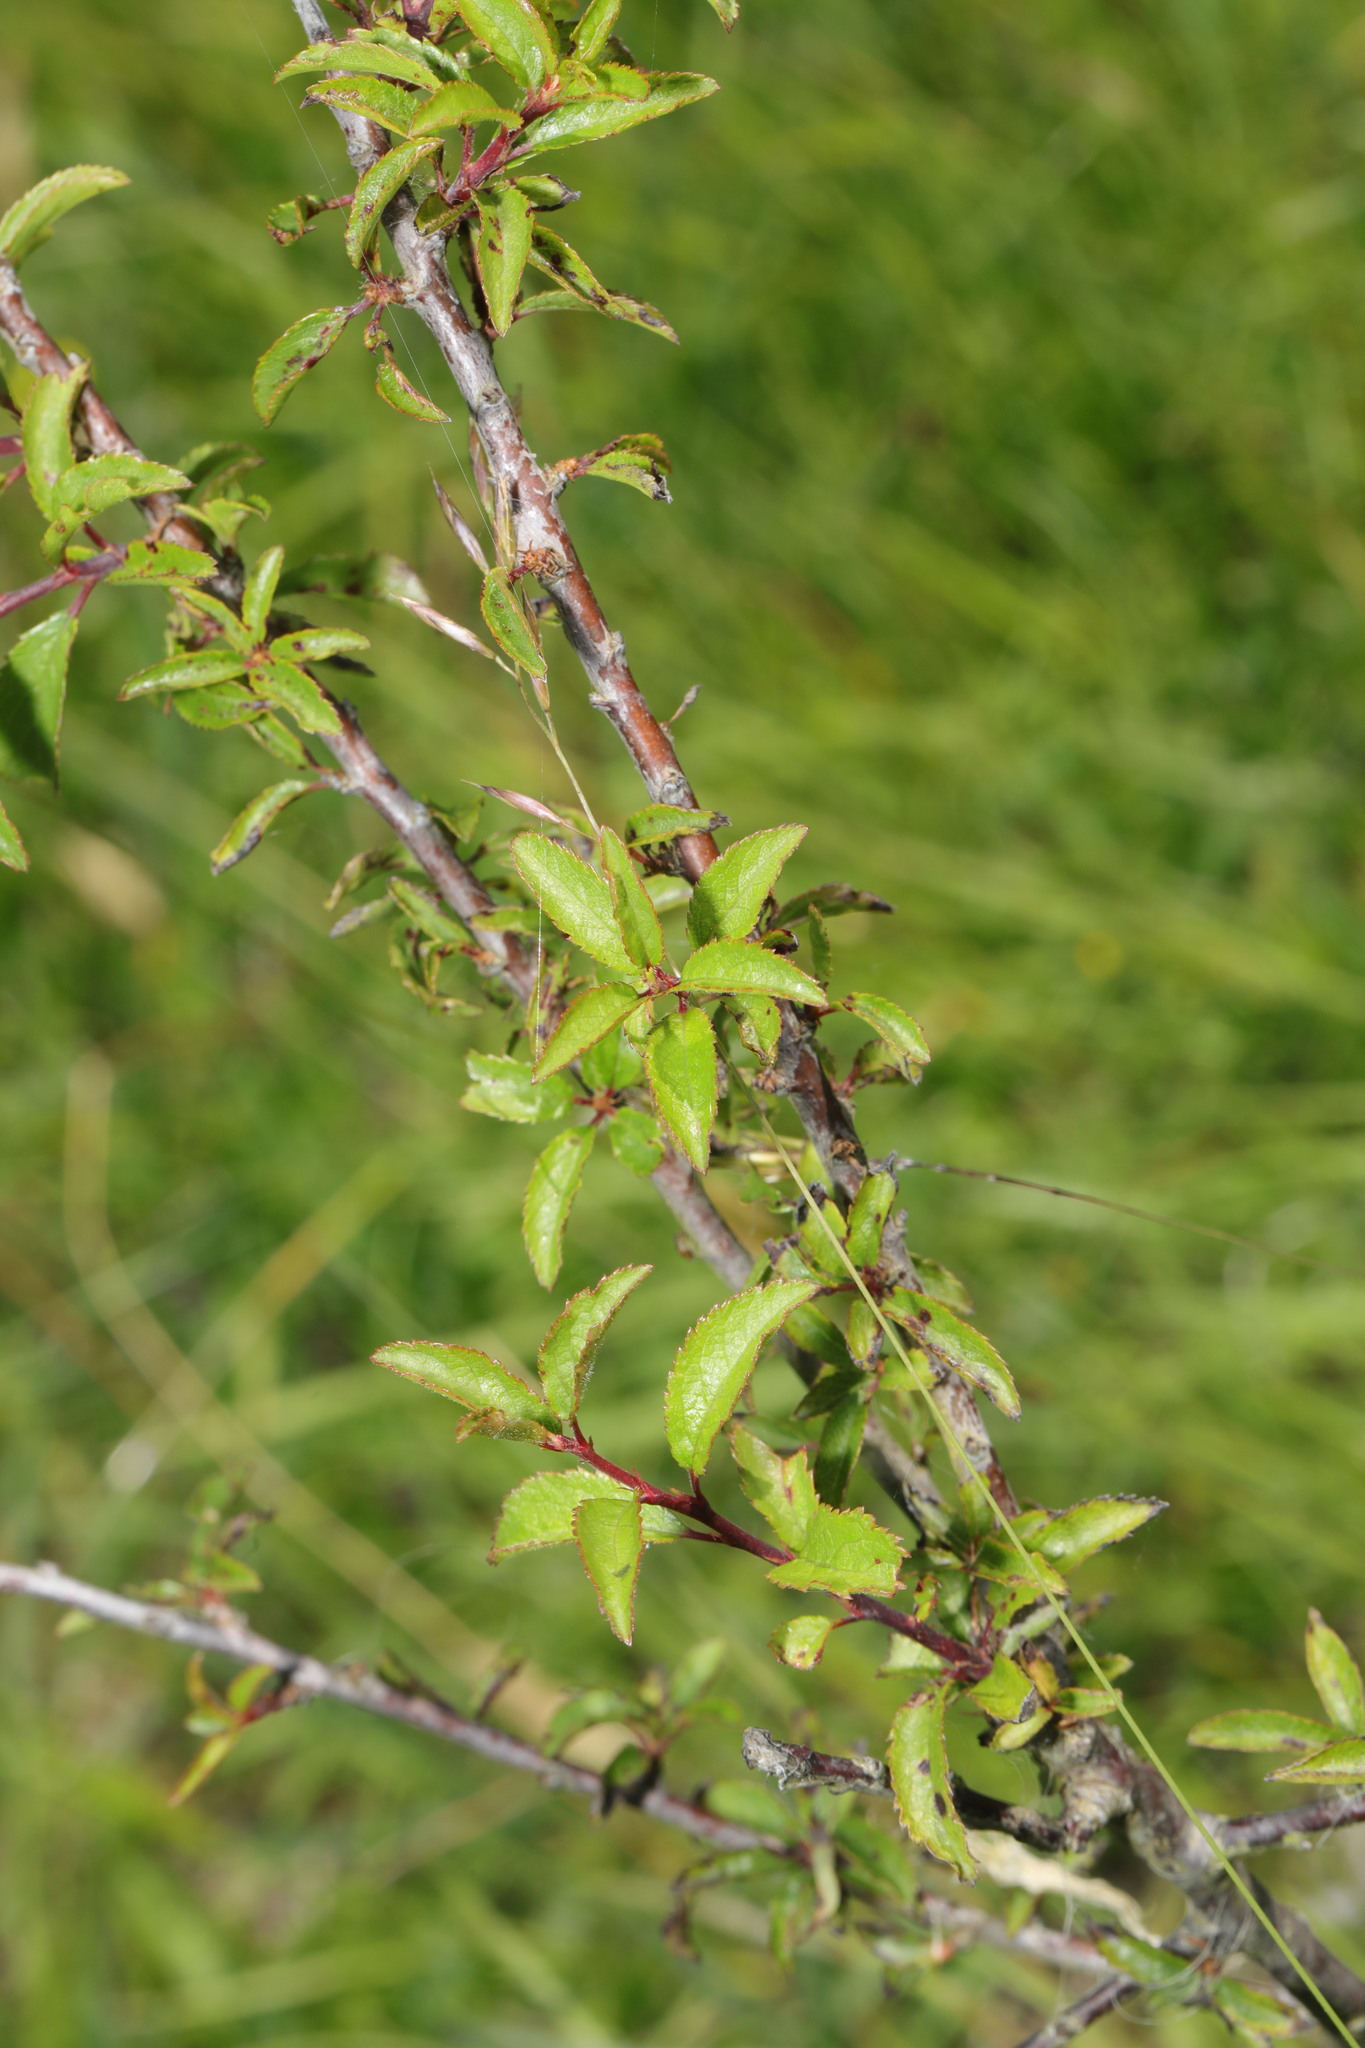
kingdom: Plantae
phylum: Tracheophyta
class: Magnoliopsida
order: Rosales
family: Rosaceae
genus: Prunus
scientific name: Prunus spinosa
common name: Blackthorn
